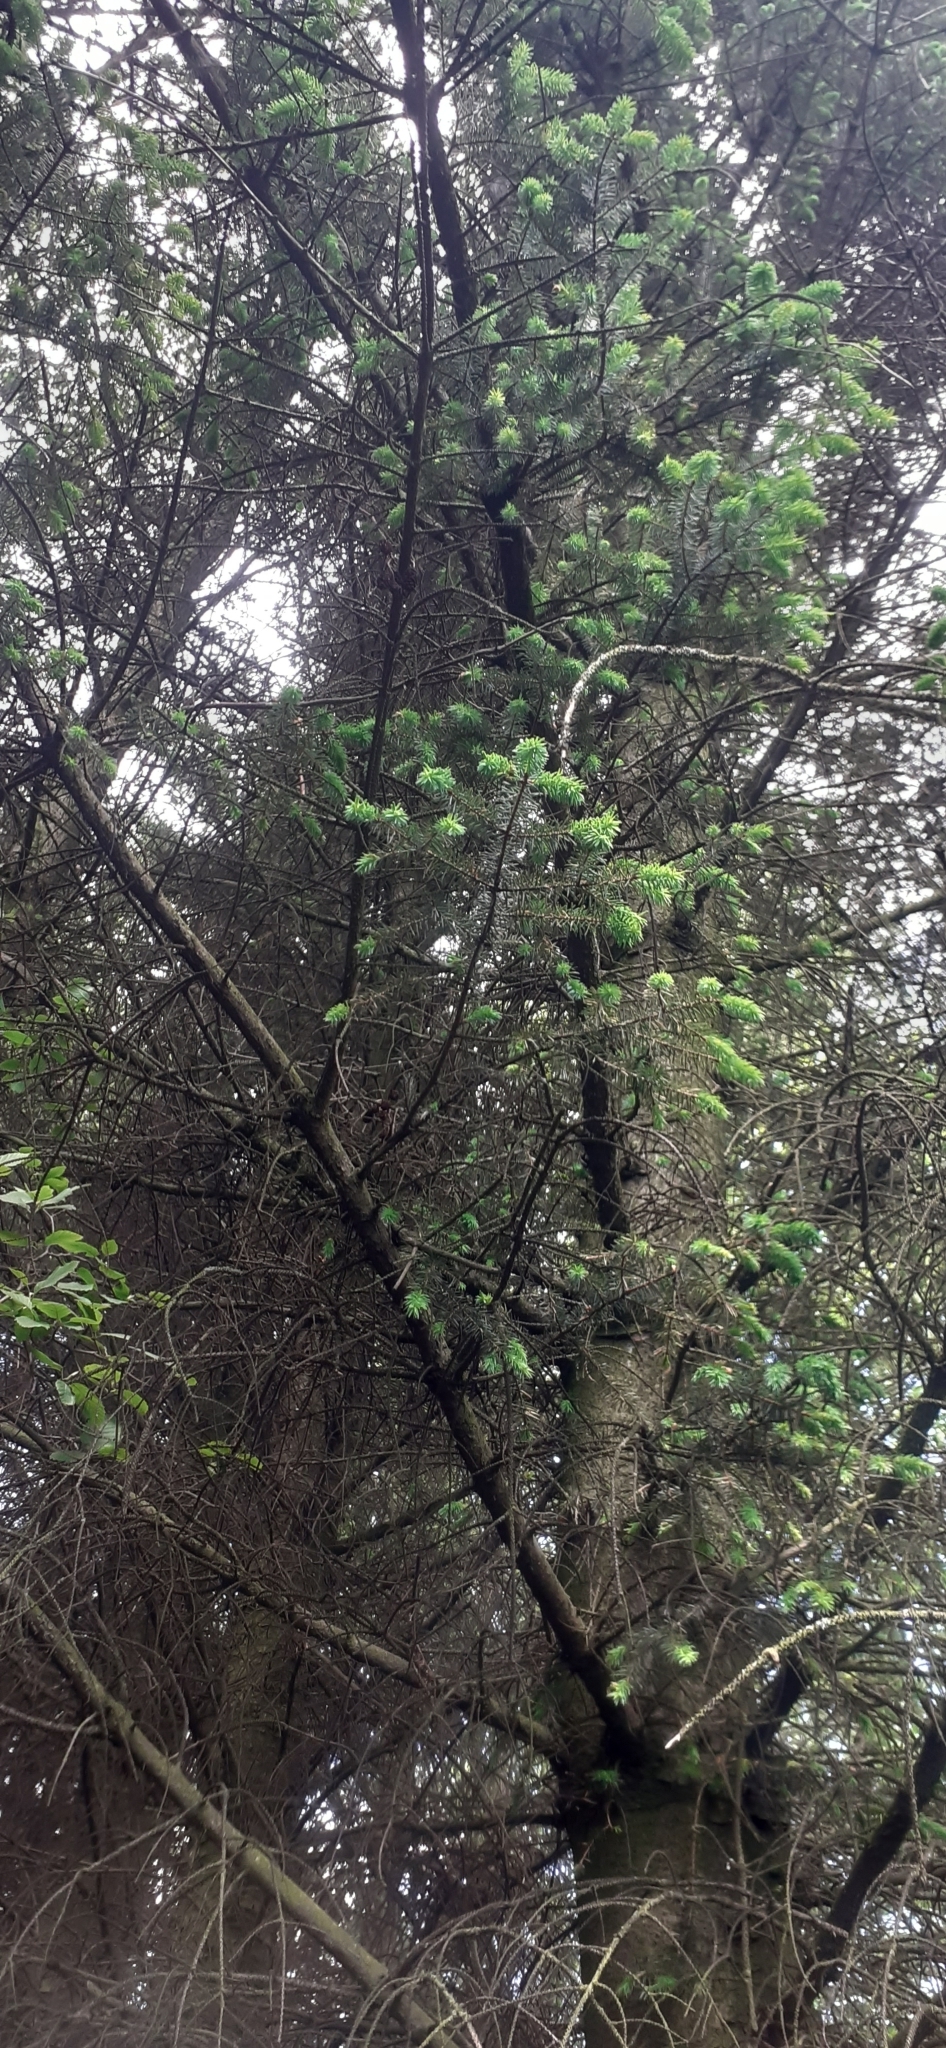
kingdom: Plantae
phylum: Tracheophyta
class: Pinopsida
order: Pinales
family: Pinaceae
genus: Picea
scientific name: Picea sitchensis
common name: Sitka spruce
